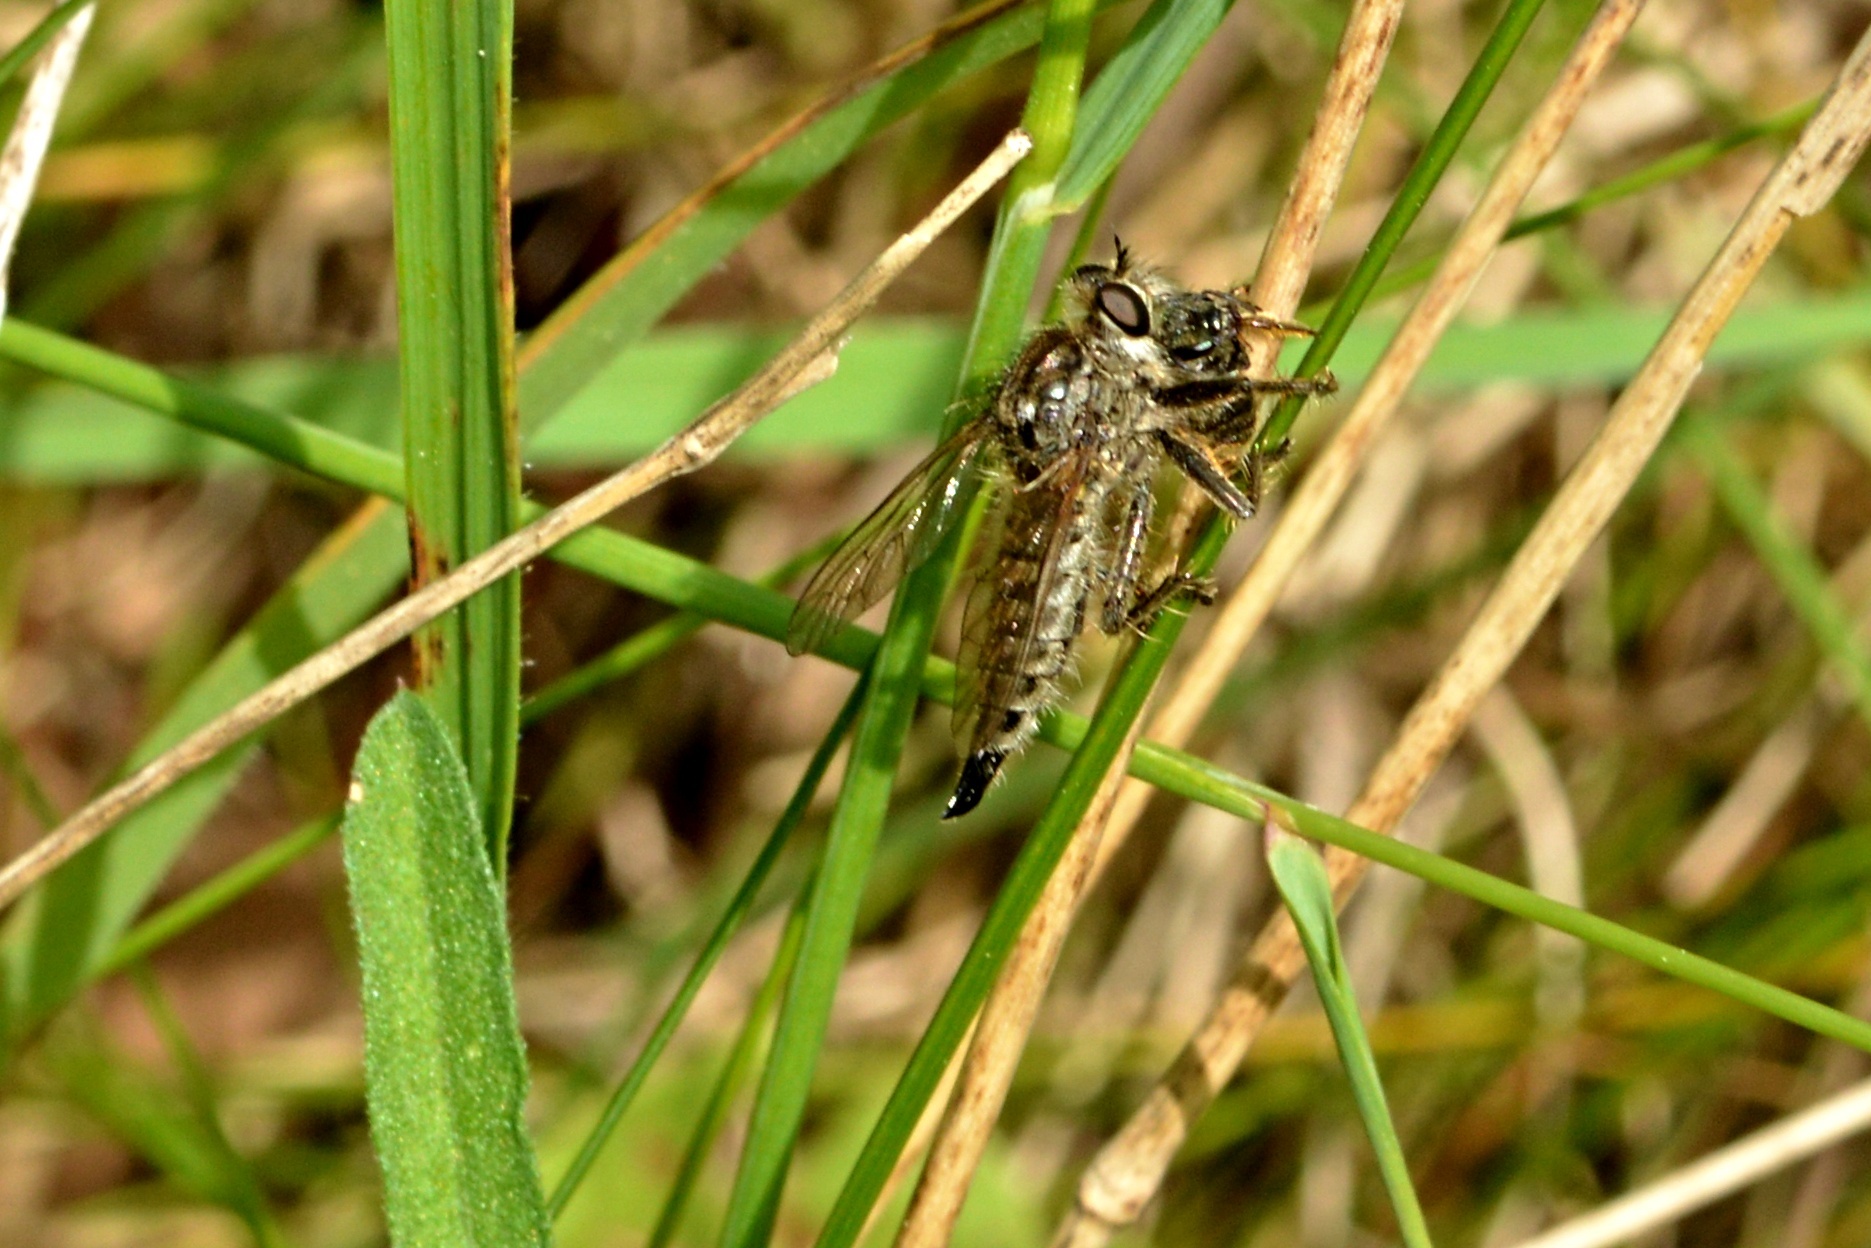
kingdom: Animalia
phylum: Arthropoda
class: Insecta
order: Diptera
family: Asilidae
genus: Dysmachus
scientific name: Dysmachus trigonus
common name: Fan-bristled robberfly
